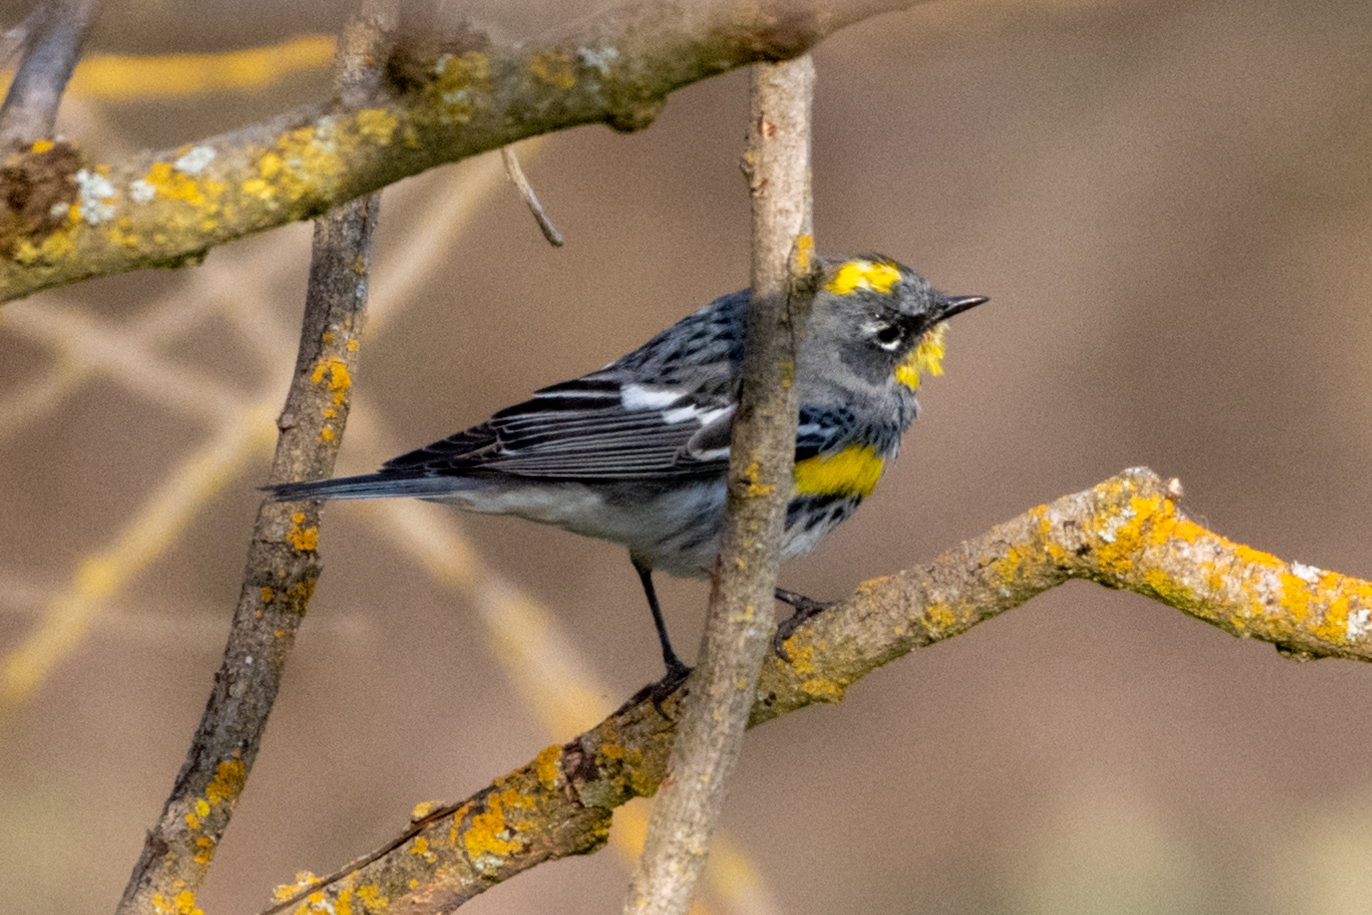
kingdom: Animalia
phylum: Chordata
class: Aves
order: Passeriformes
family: Parulidae
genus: Setophaga
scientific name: Setophaga auduboni
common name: Audubon's warbler
